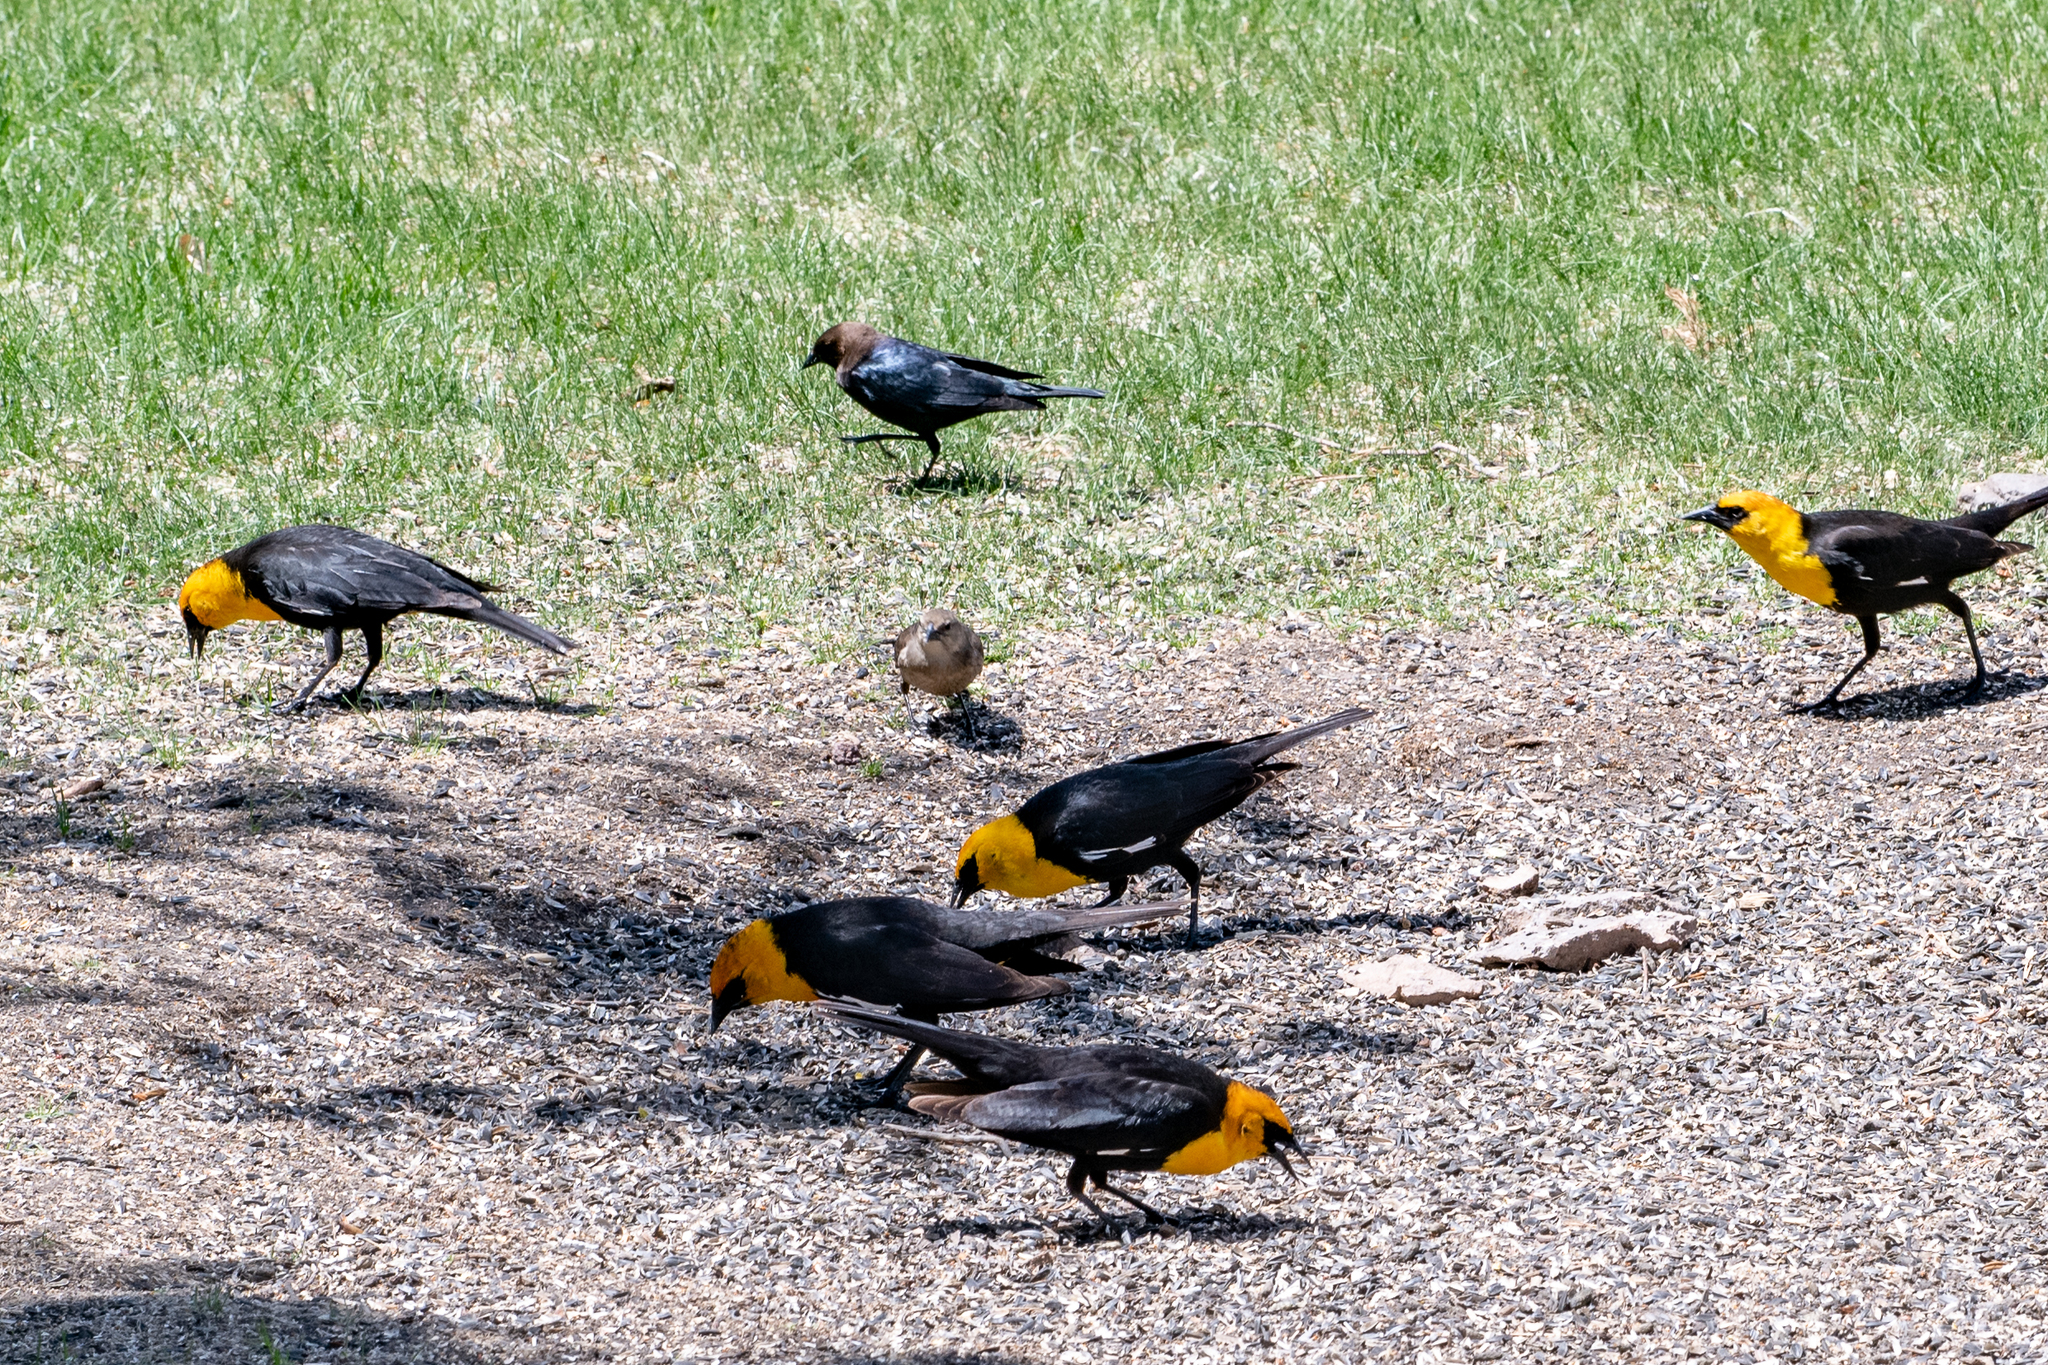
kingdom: Animalia
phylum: Chordata
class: Aves
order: Passeriformes
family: Icteridae
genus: Xanthocephalus
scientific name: Xanthocephalus xanthocephalus
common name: Yellow-headed blackbird
